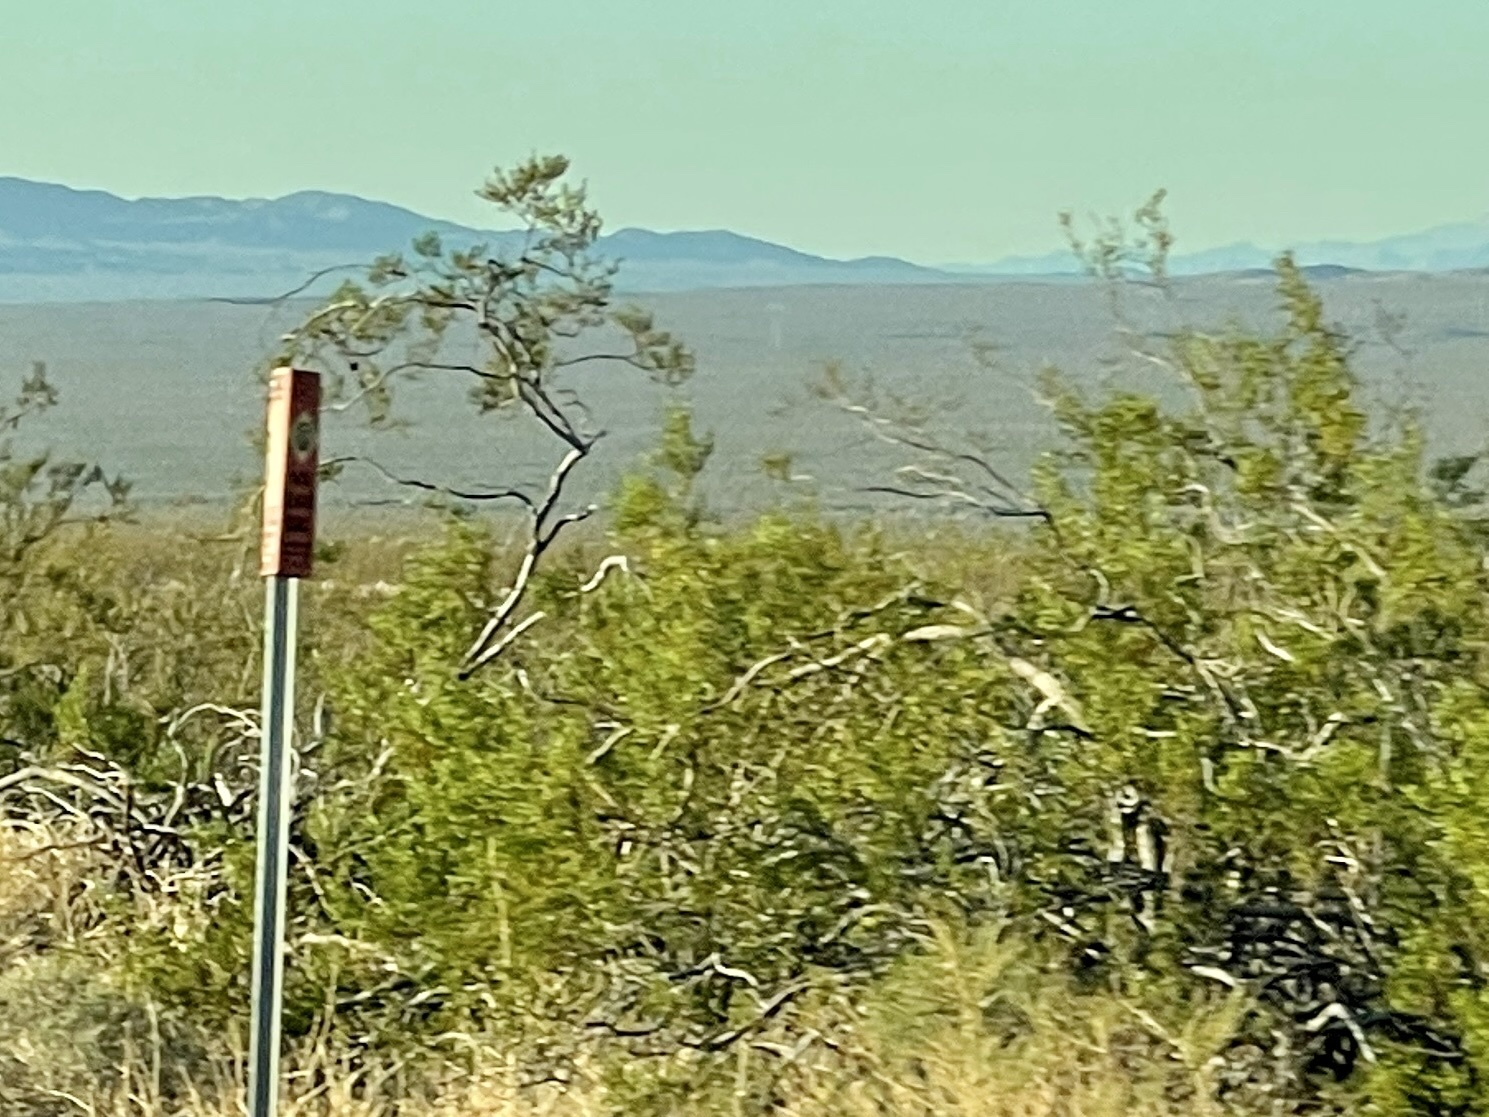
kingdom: Plantae
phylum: Tracheophyta
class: Magnoliopsida
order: Zygophyllales
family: Zygophyllaceae
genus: Larrea
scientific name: Larrea tridentata
